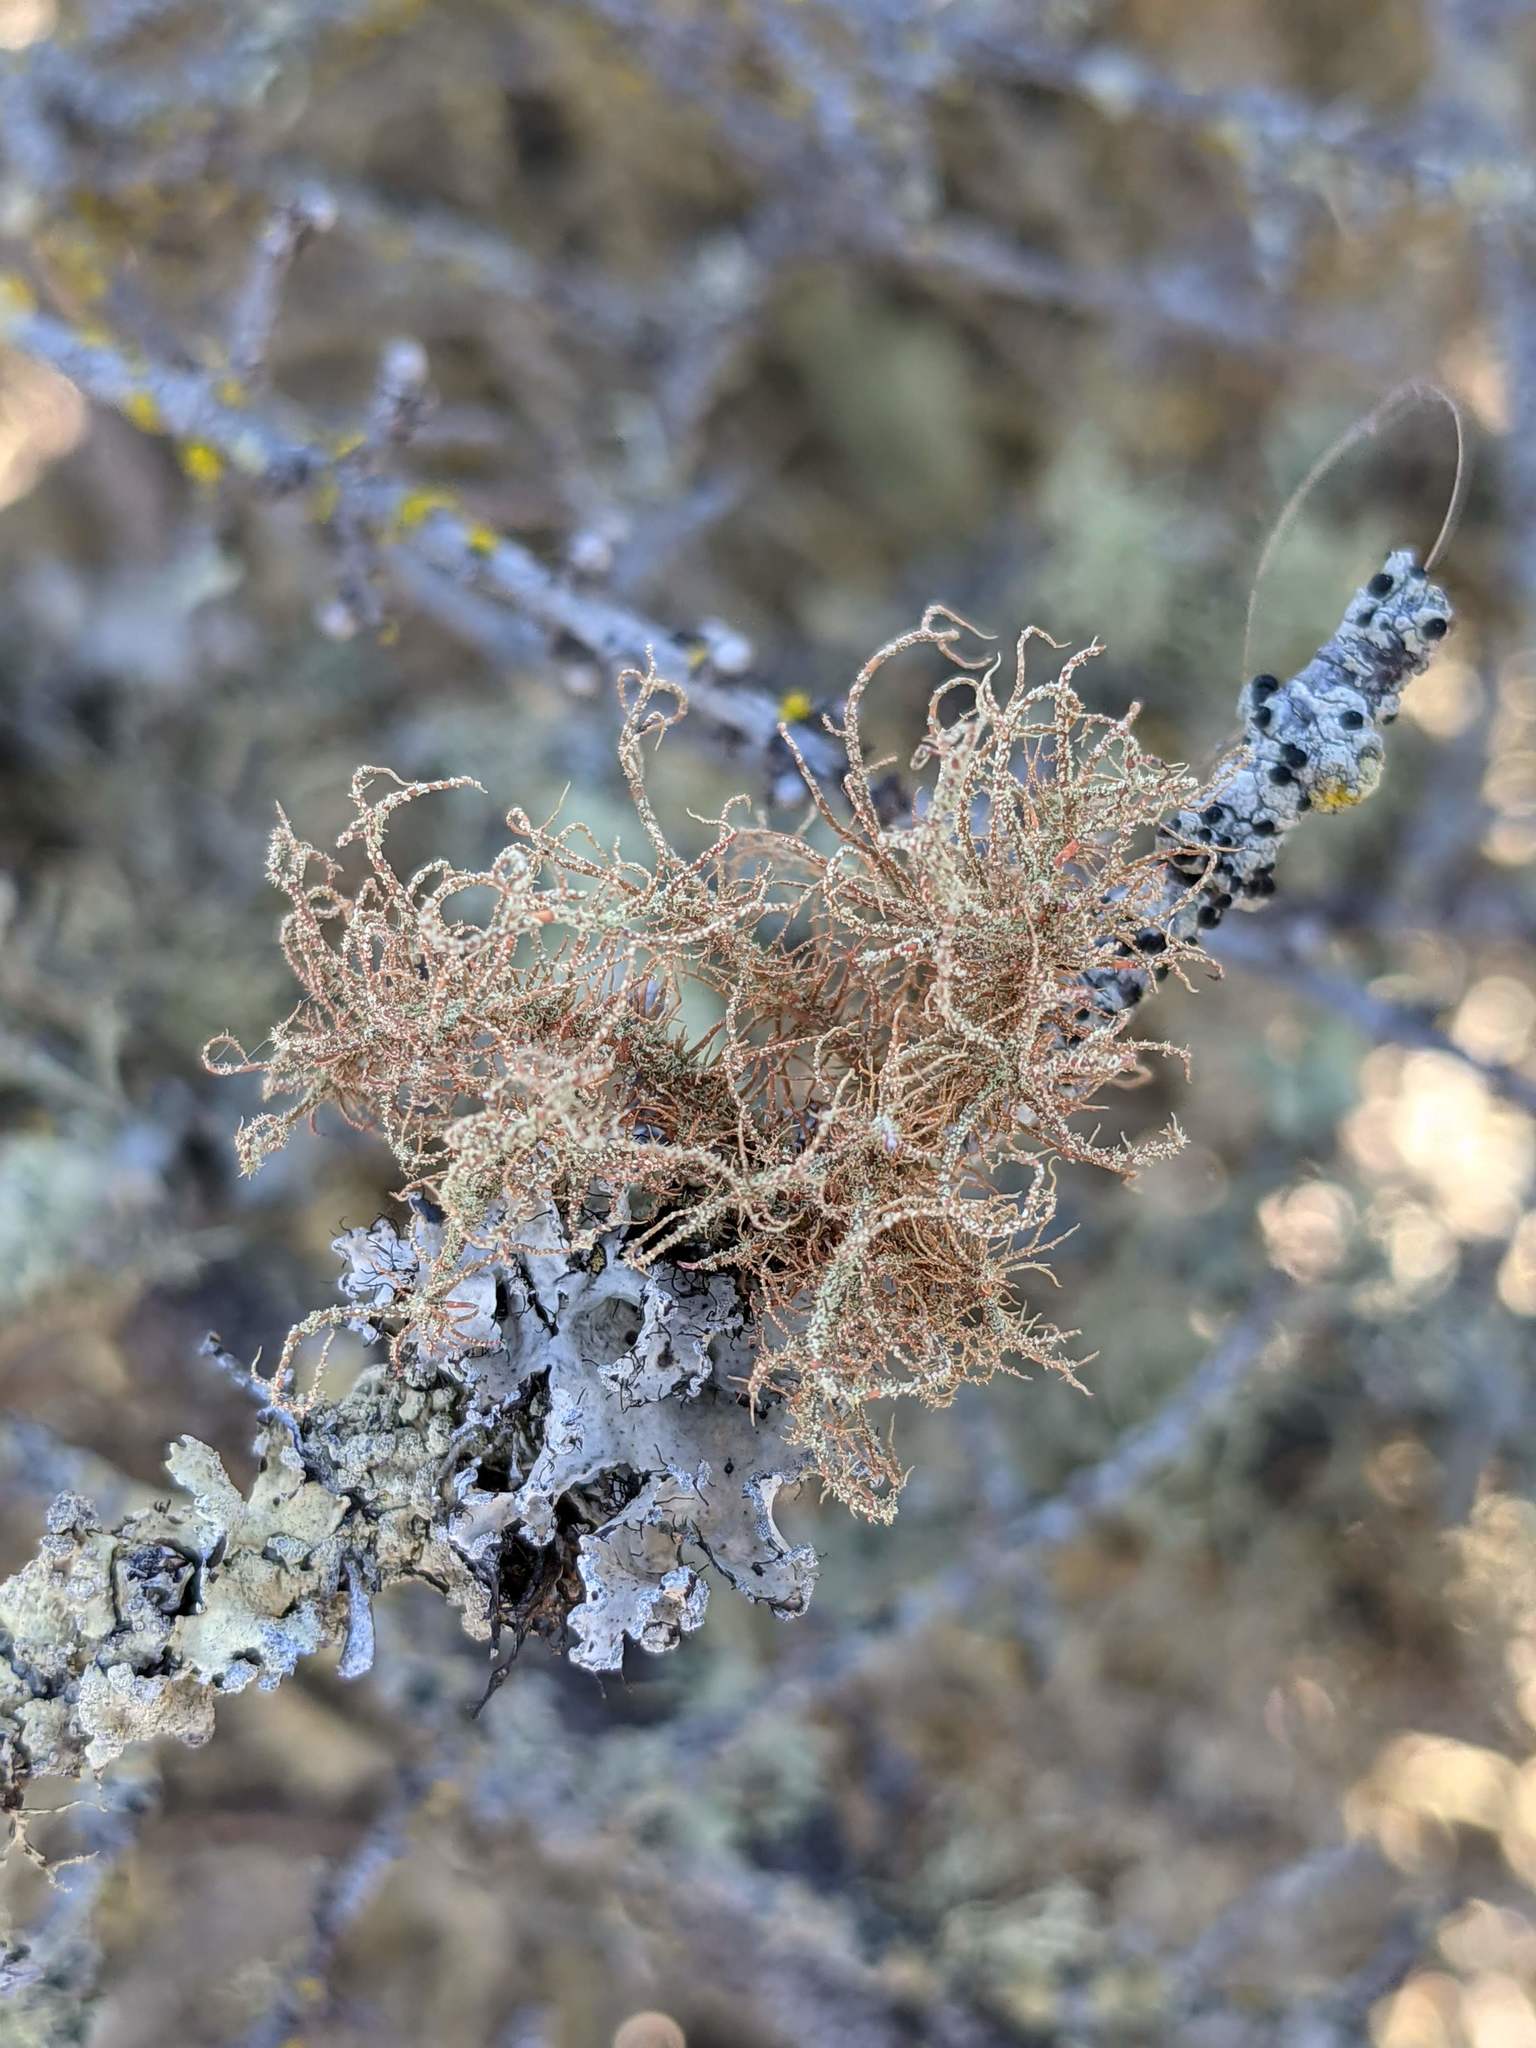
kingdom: Fungi
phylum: Ascomycota
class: Lecanoromycetes
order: Lecanorales
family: Parmeliaceae
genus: Usnea
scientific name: Usnea rubicunda
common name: Red beard lichen
